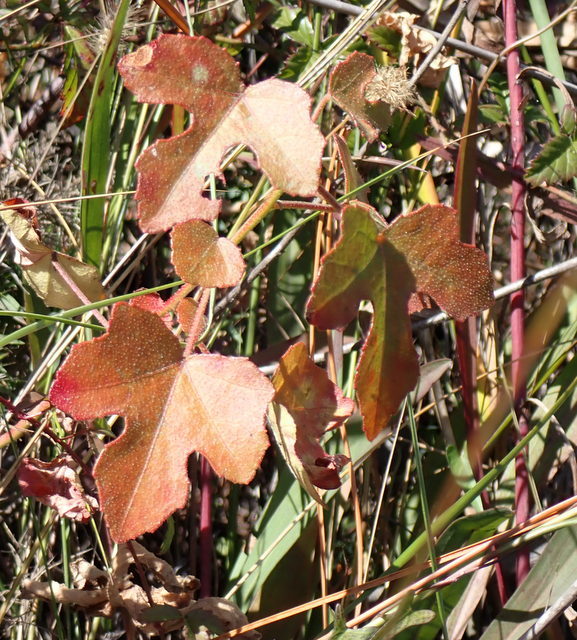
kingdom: Plantae
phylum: Tracheophyta
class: Magnoliopsida
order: Malvales
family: Malvaceae
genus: Hibiscus
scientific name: Hibiscus aculeatus
